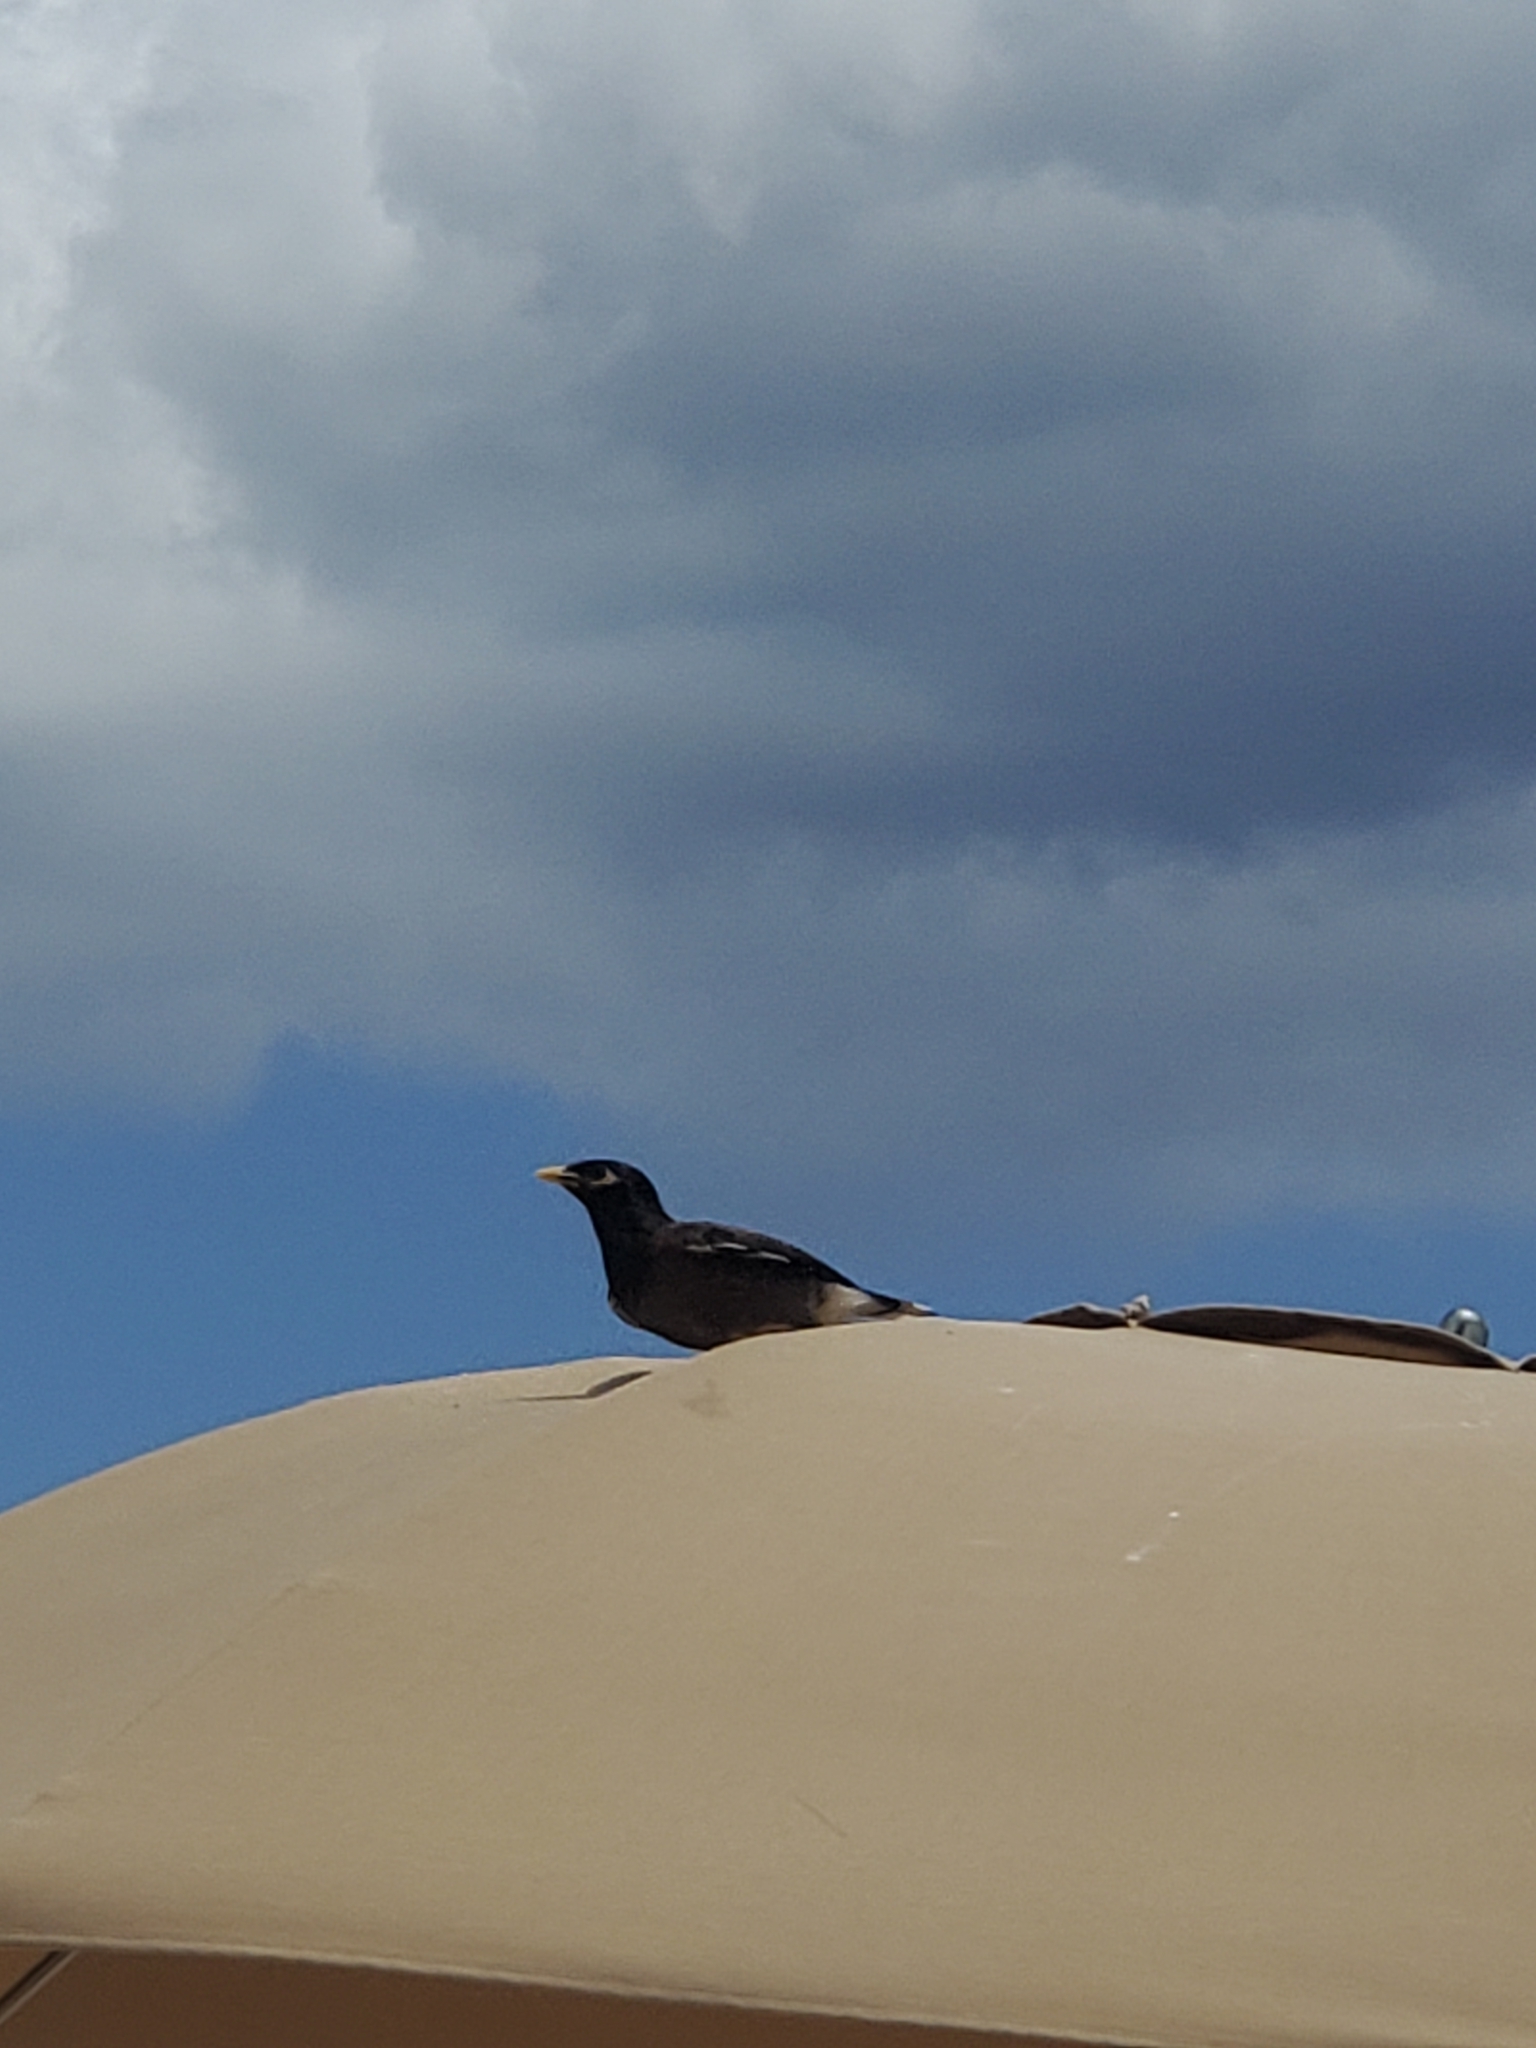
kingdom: Animalia
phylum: Chordata
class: Aves
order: Passeriformes
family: Sturnidae
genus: Acridotheres
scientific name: Acridotheres tristis
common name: Common myna
